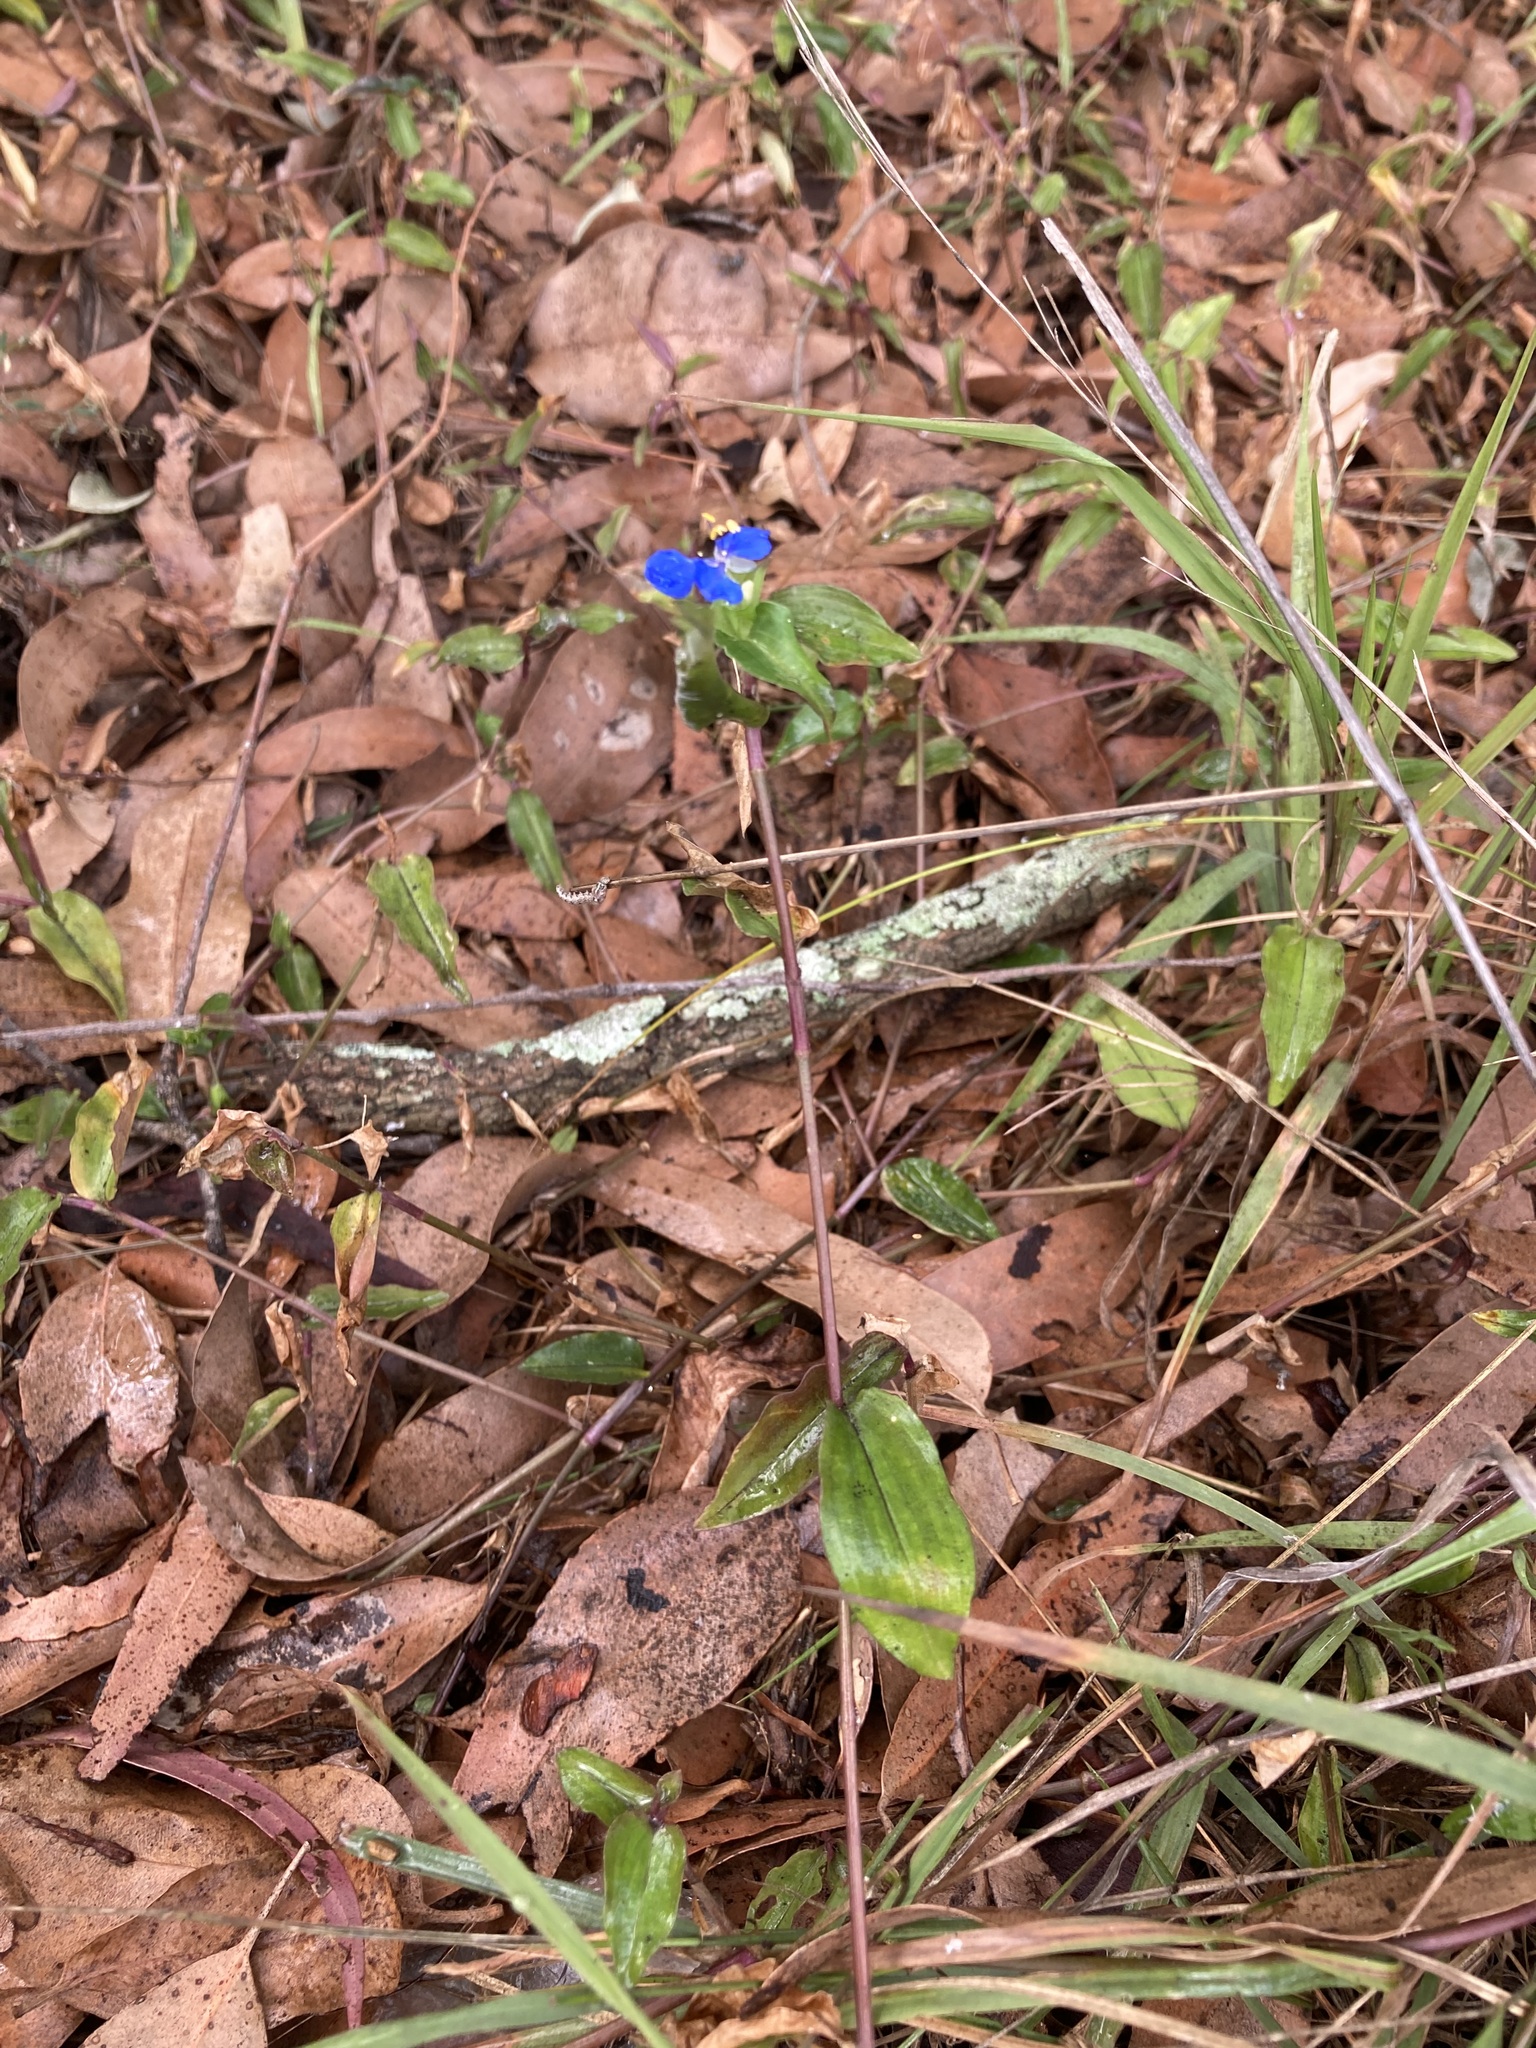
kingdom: Plantae
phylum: Tracheophyta
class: Liliopsida
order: Commelinales
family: Commelinaceae
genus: Commelina
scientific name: Commelina cyanea
